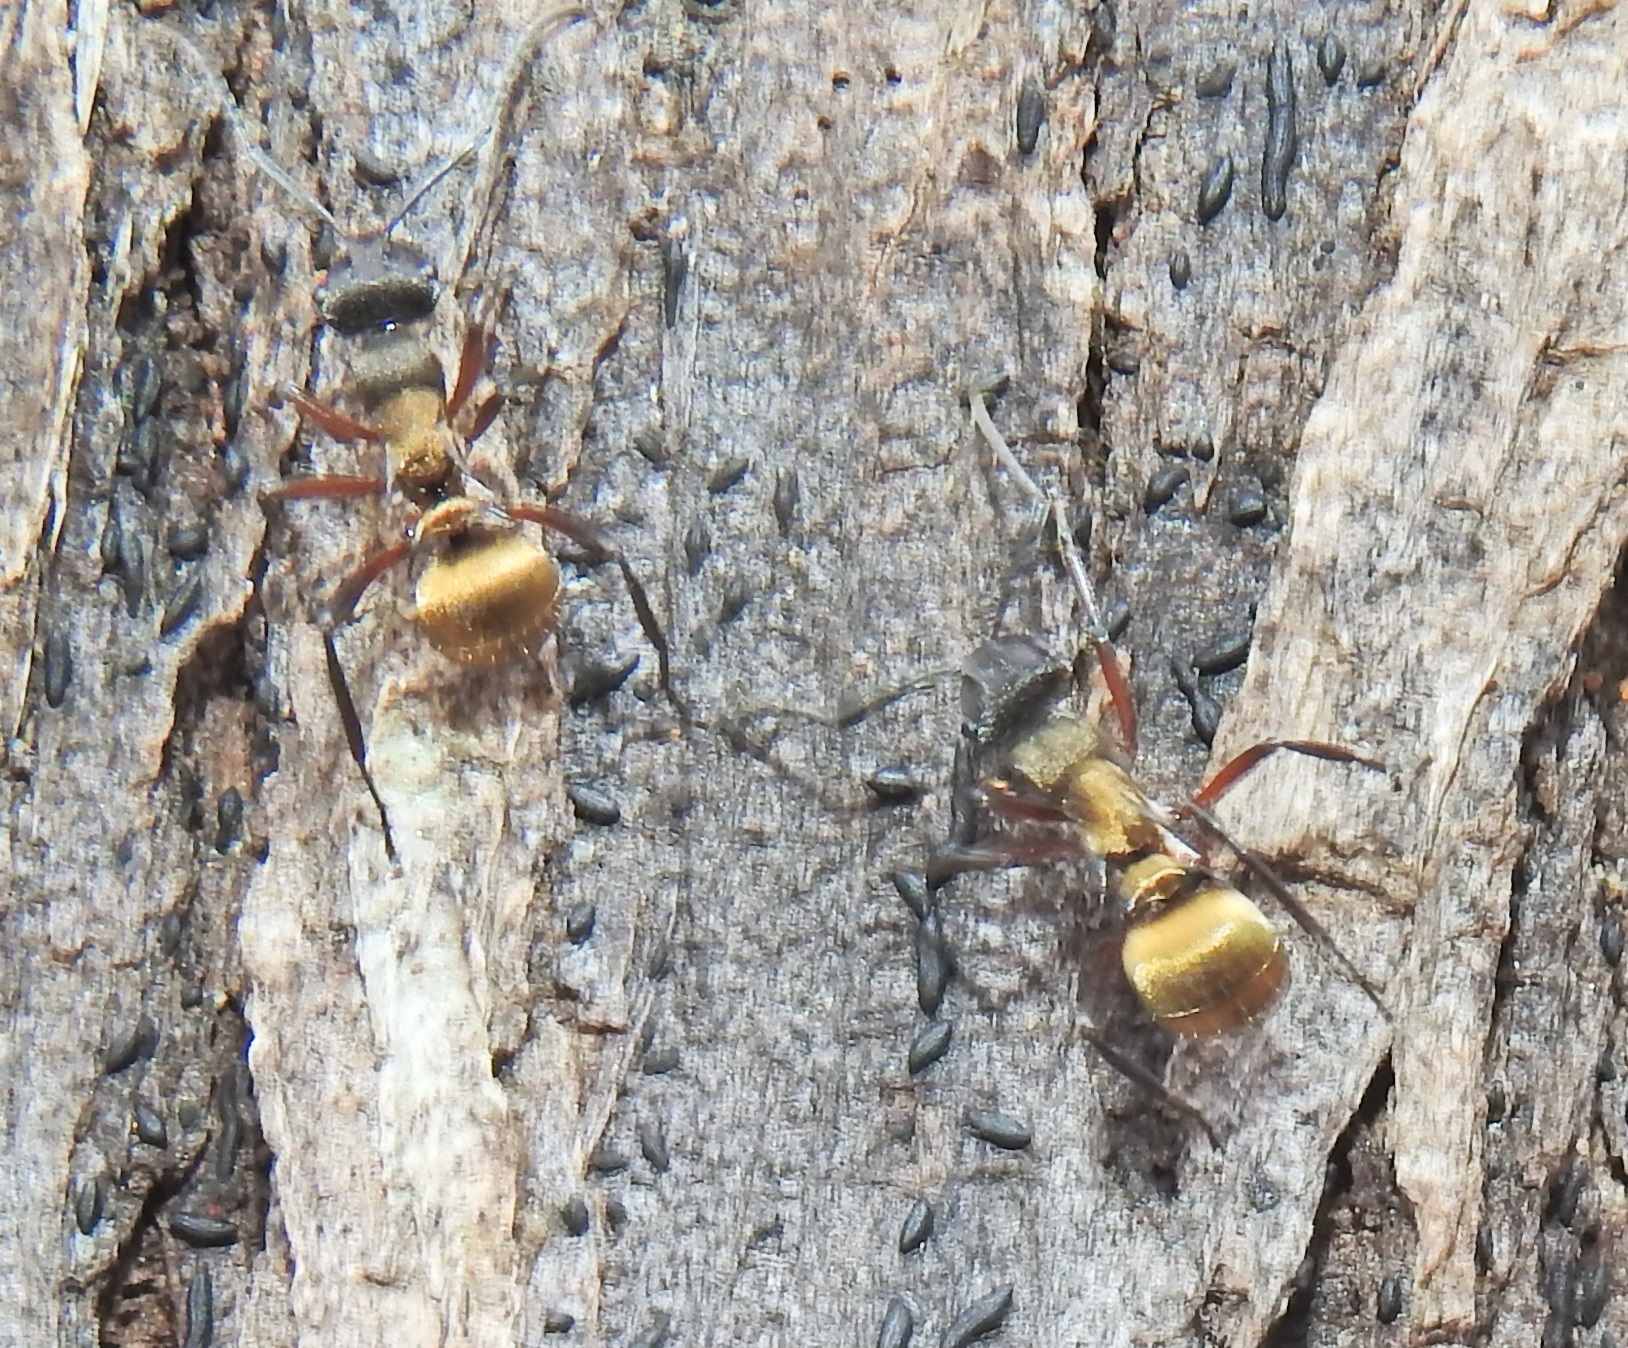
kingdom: Animalia
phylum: Arthropoda
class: Insecta
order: Hymenoptera
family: Formicidae
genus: Polyrhachis
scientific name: Polyrhachis rufifemur
